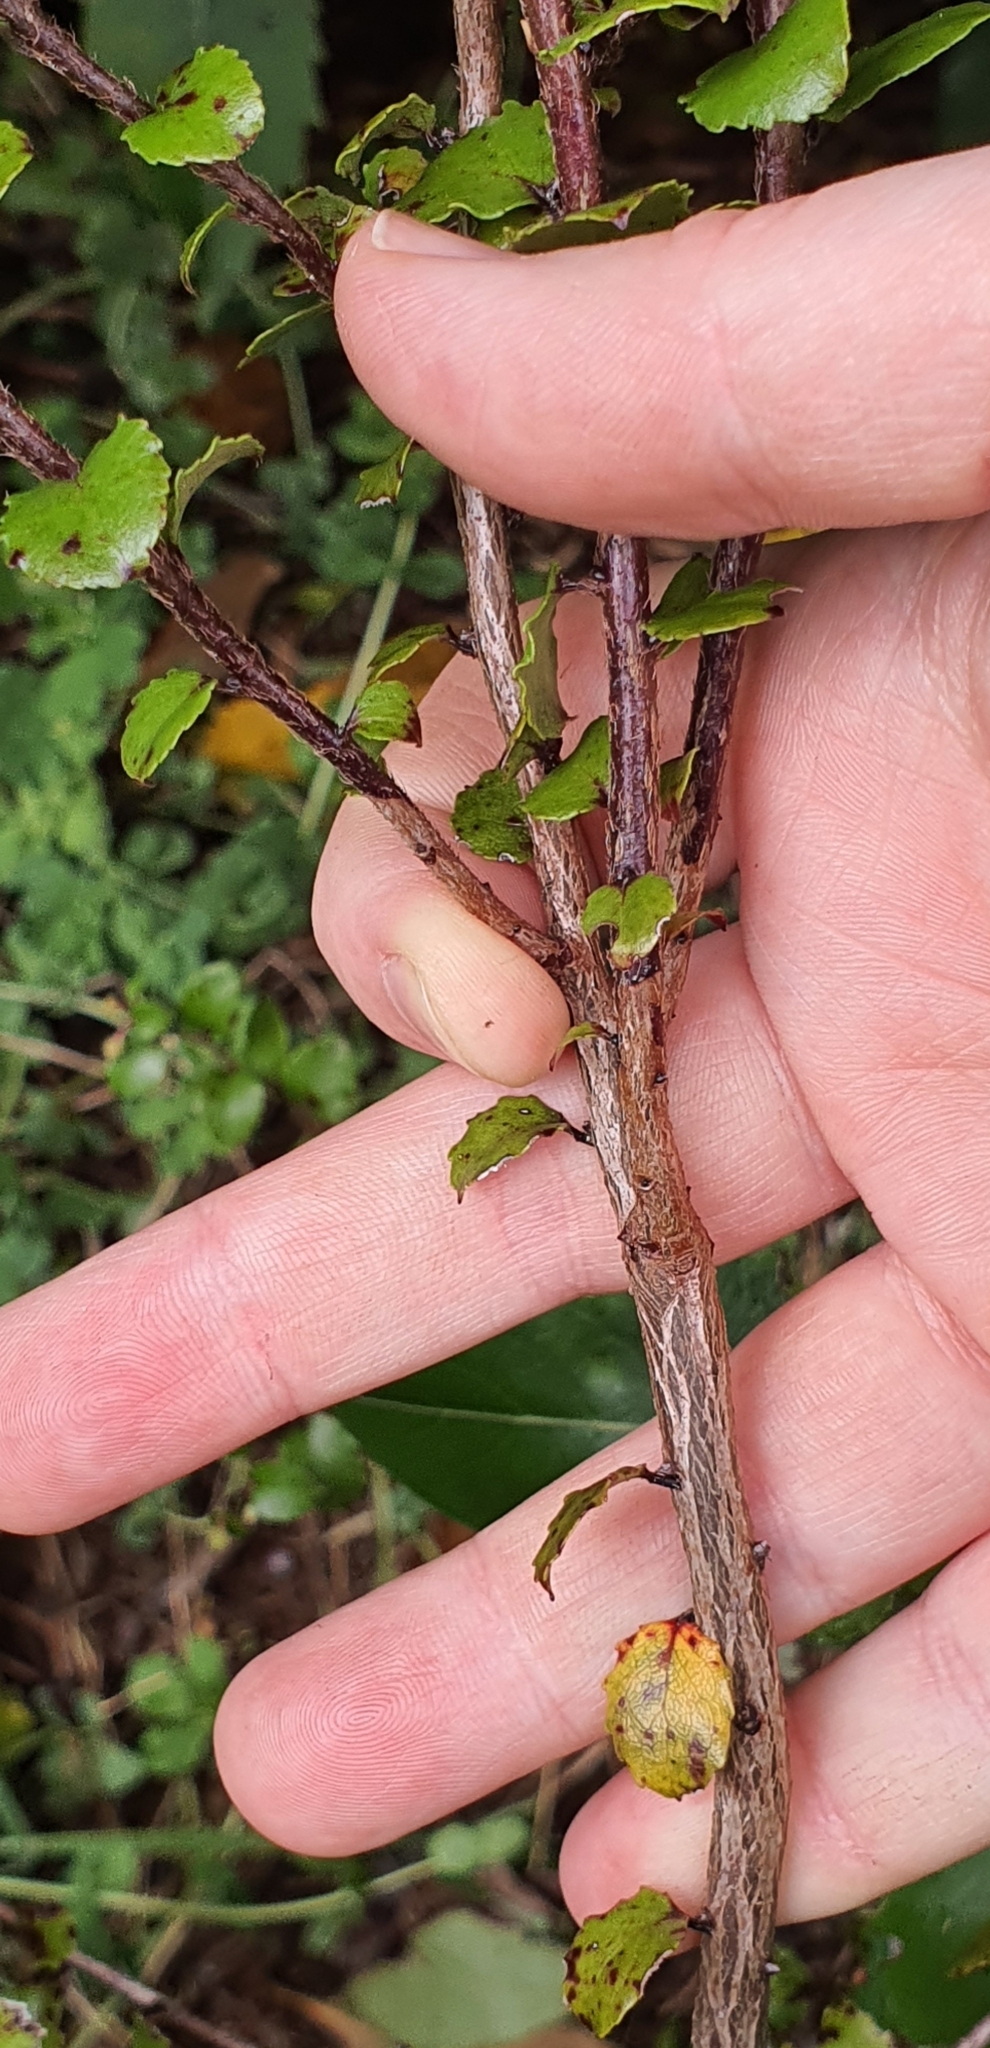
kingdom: Plantae
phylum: Tracheophyta
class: Magnoliopsida
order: Ericales
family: Ericaceae
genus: Gaultheria
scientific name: Gaultheria antipoda
